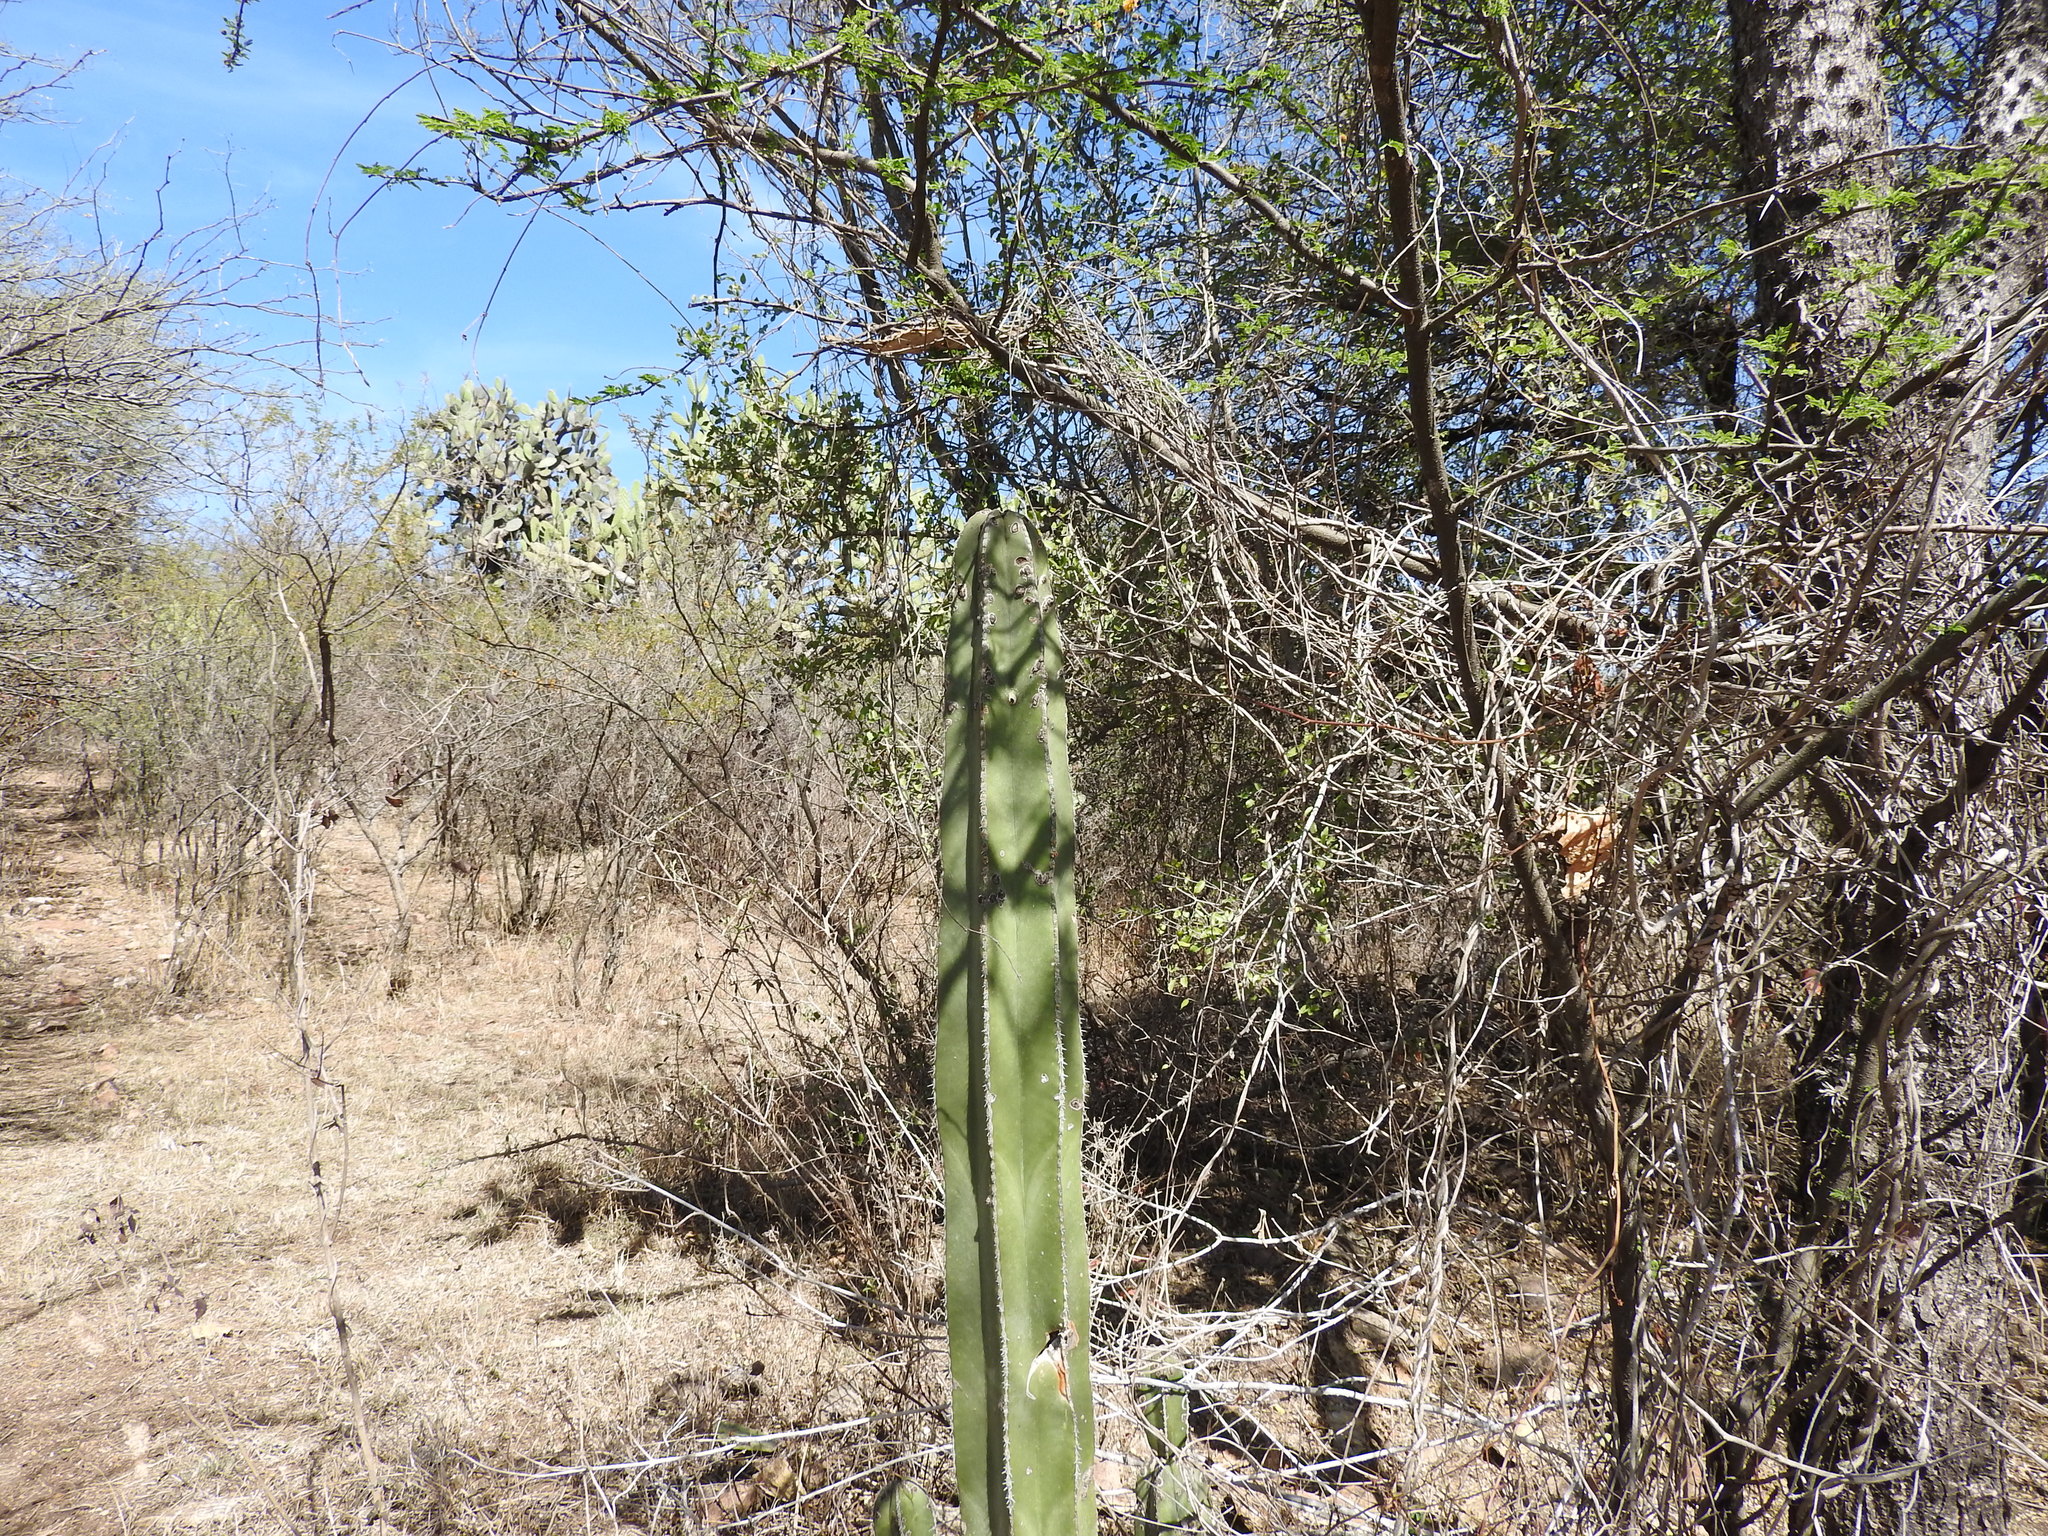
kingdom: Plantae
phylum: Tracheophyta
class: Magnoliopsida
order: Caryophyllales
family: Cactaceae
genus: Marginatocereus
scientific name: Marginatocereus marginatus
